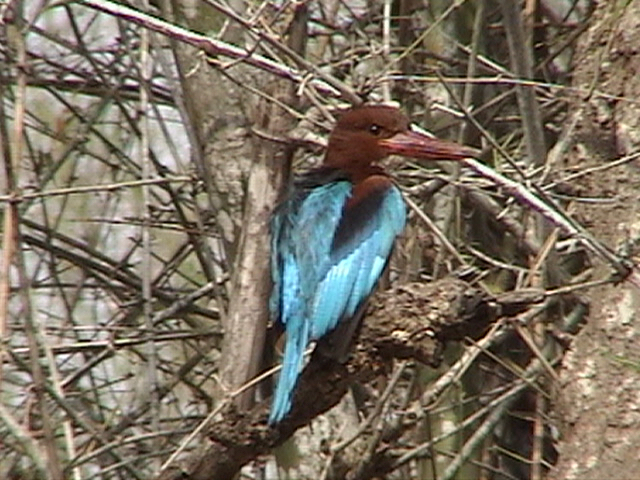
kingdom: Animalia
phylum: Chordata
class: Aves
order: Coraciiformes
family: Alcedinidae
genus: Halcyon
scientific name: Halcyon smyrnensis
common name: White-throated kingfisher
